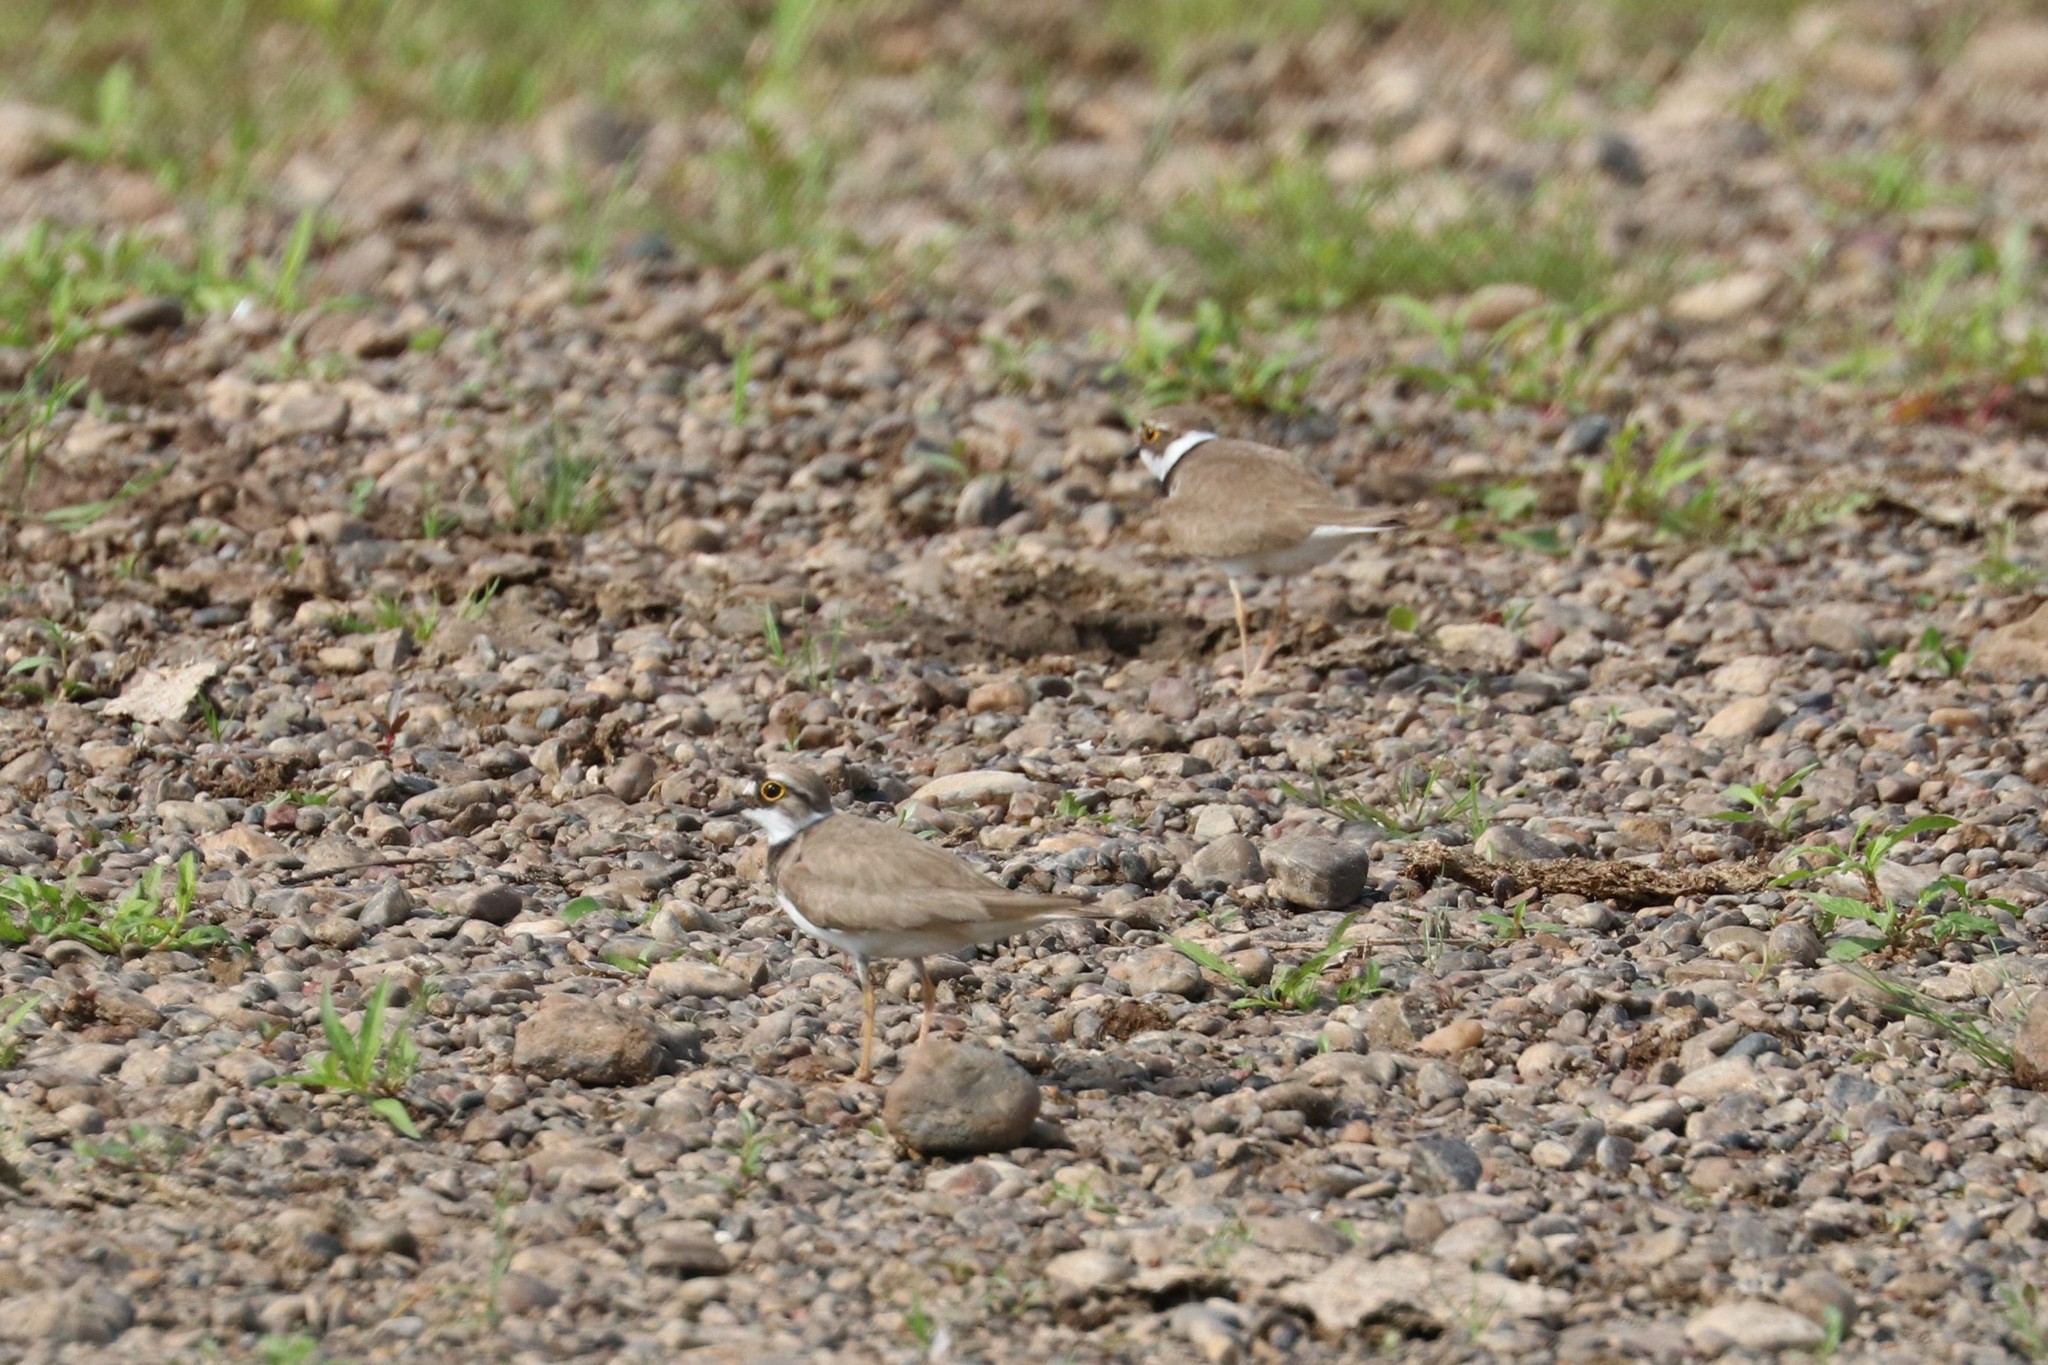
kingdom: Animalia
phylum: Chordata
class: Aves
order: Charadriiformes
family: Charadriidae
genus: Charadrius
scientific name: Charadrius dubius
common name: Little ringed plover
